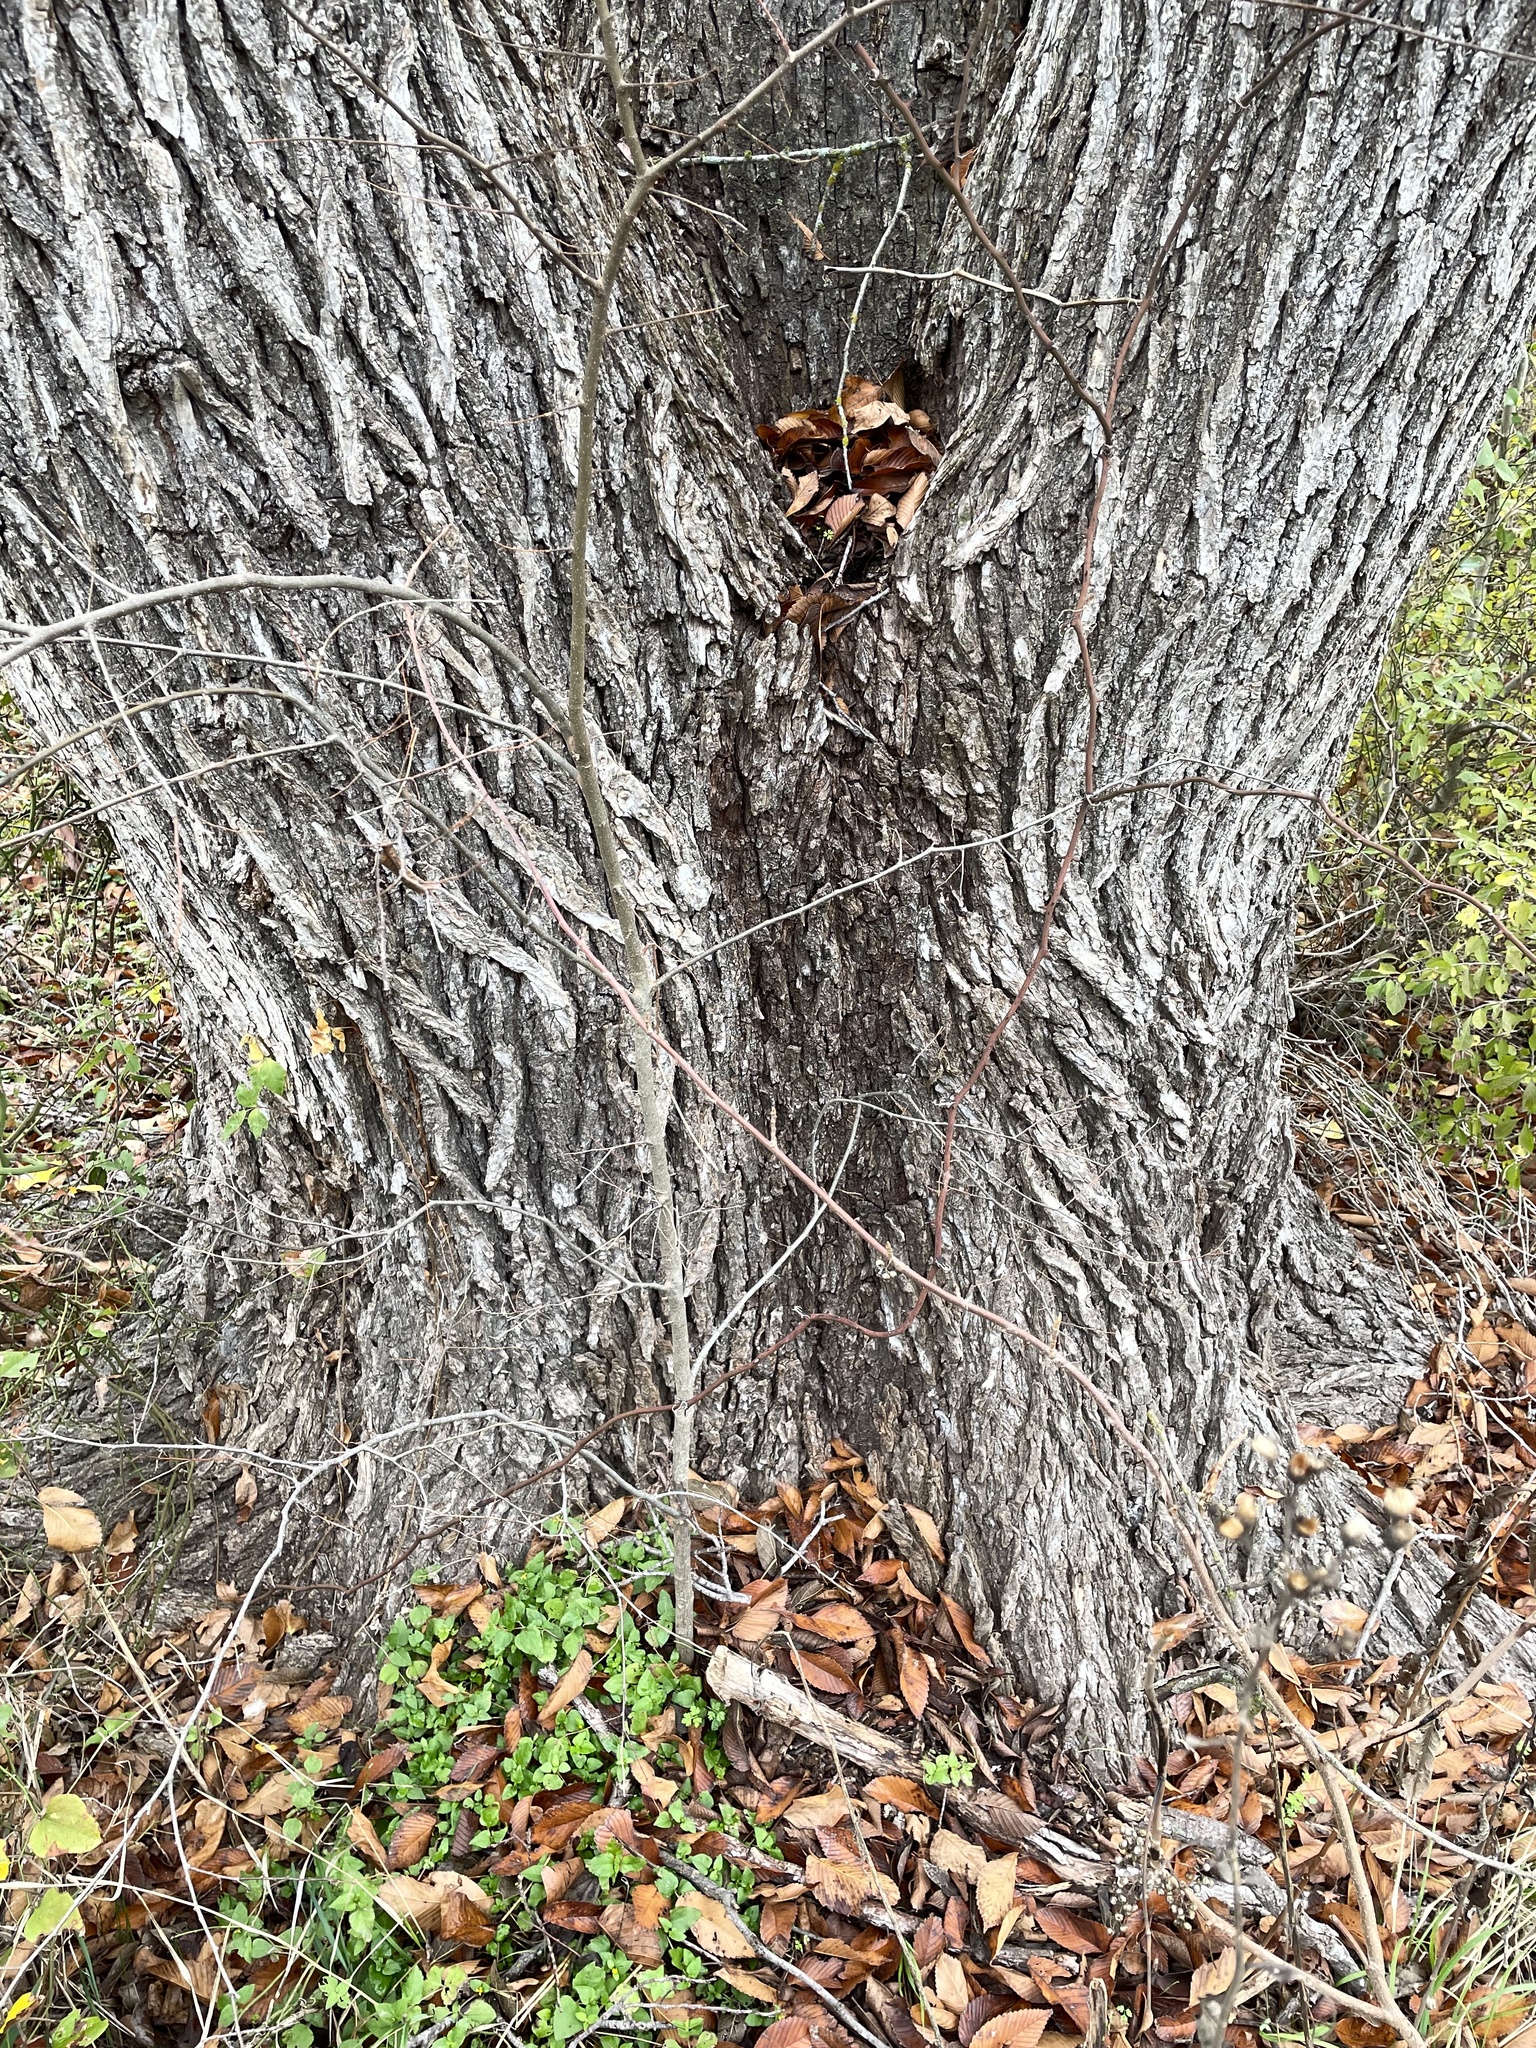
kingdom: Plantae
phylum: Tracheophyta
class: Magnoliopsida
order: Rosales
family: Ulmaceae
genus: Ulmus
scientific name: Ulmus americana
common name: American elm
